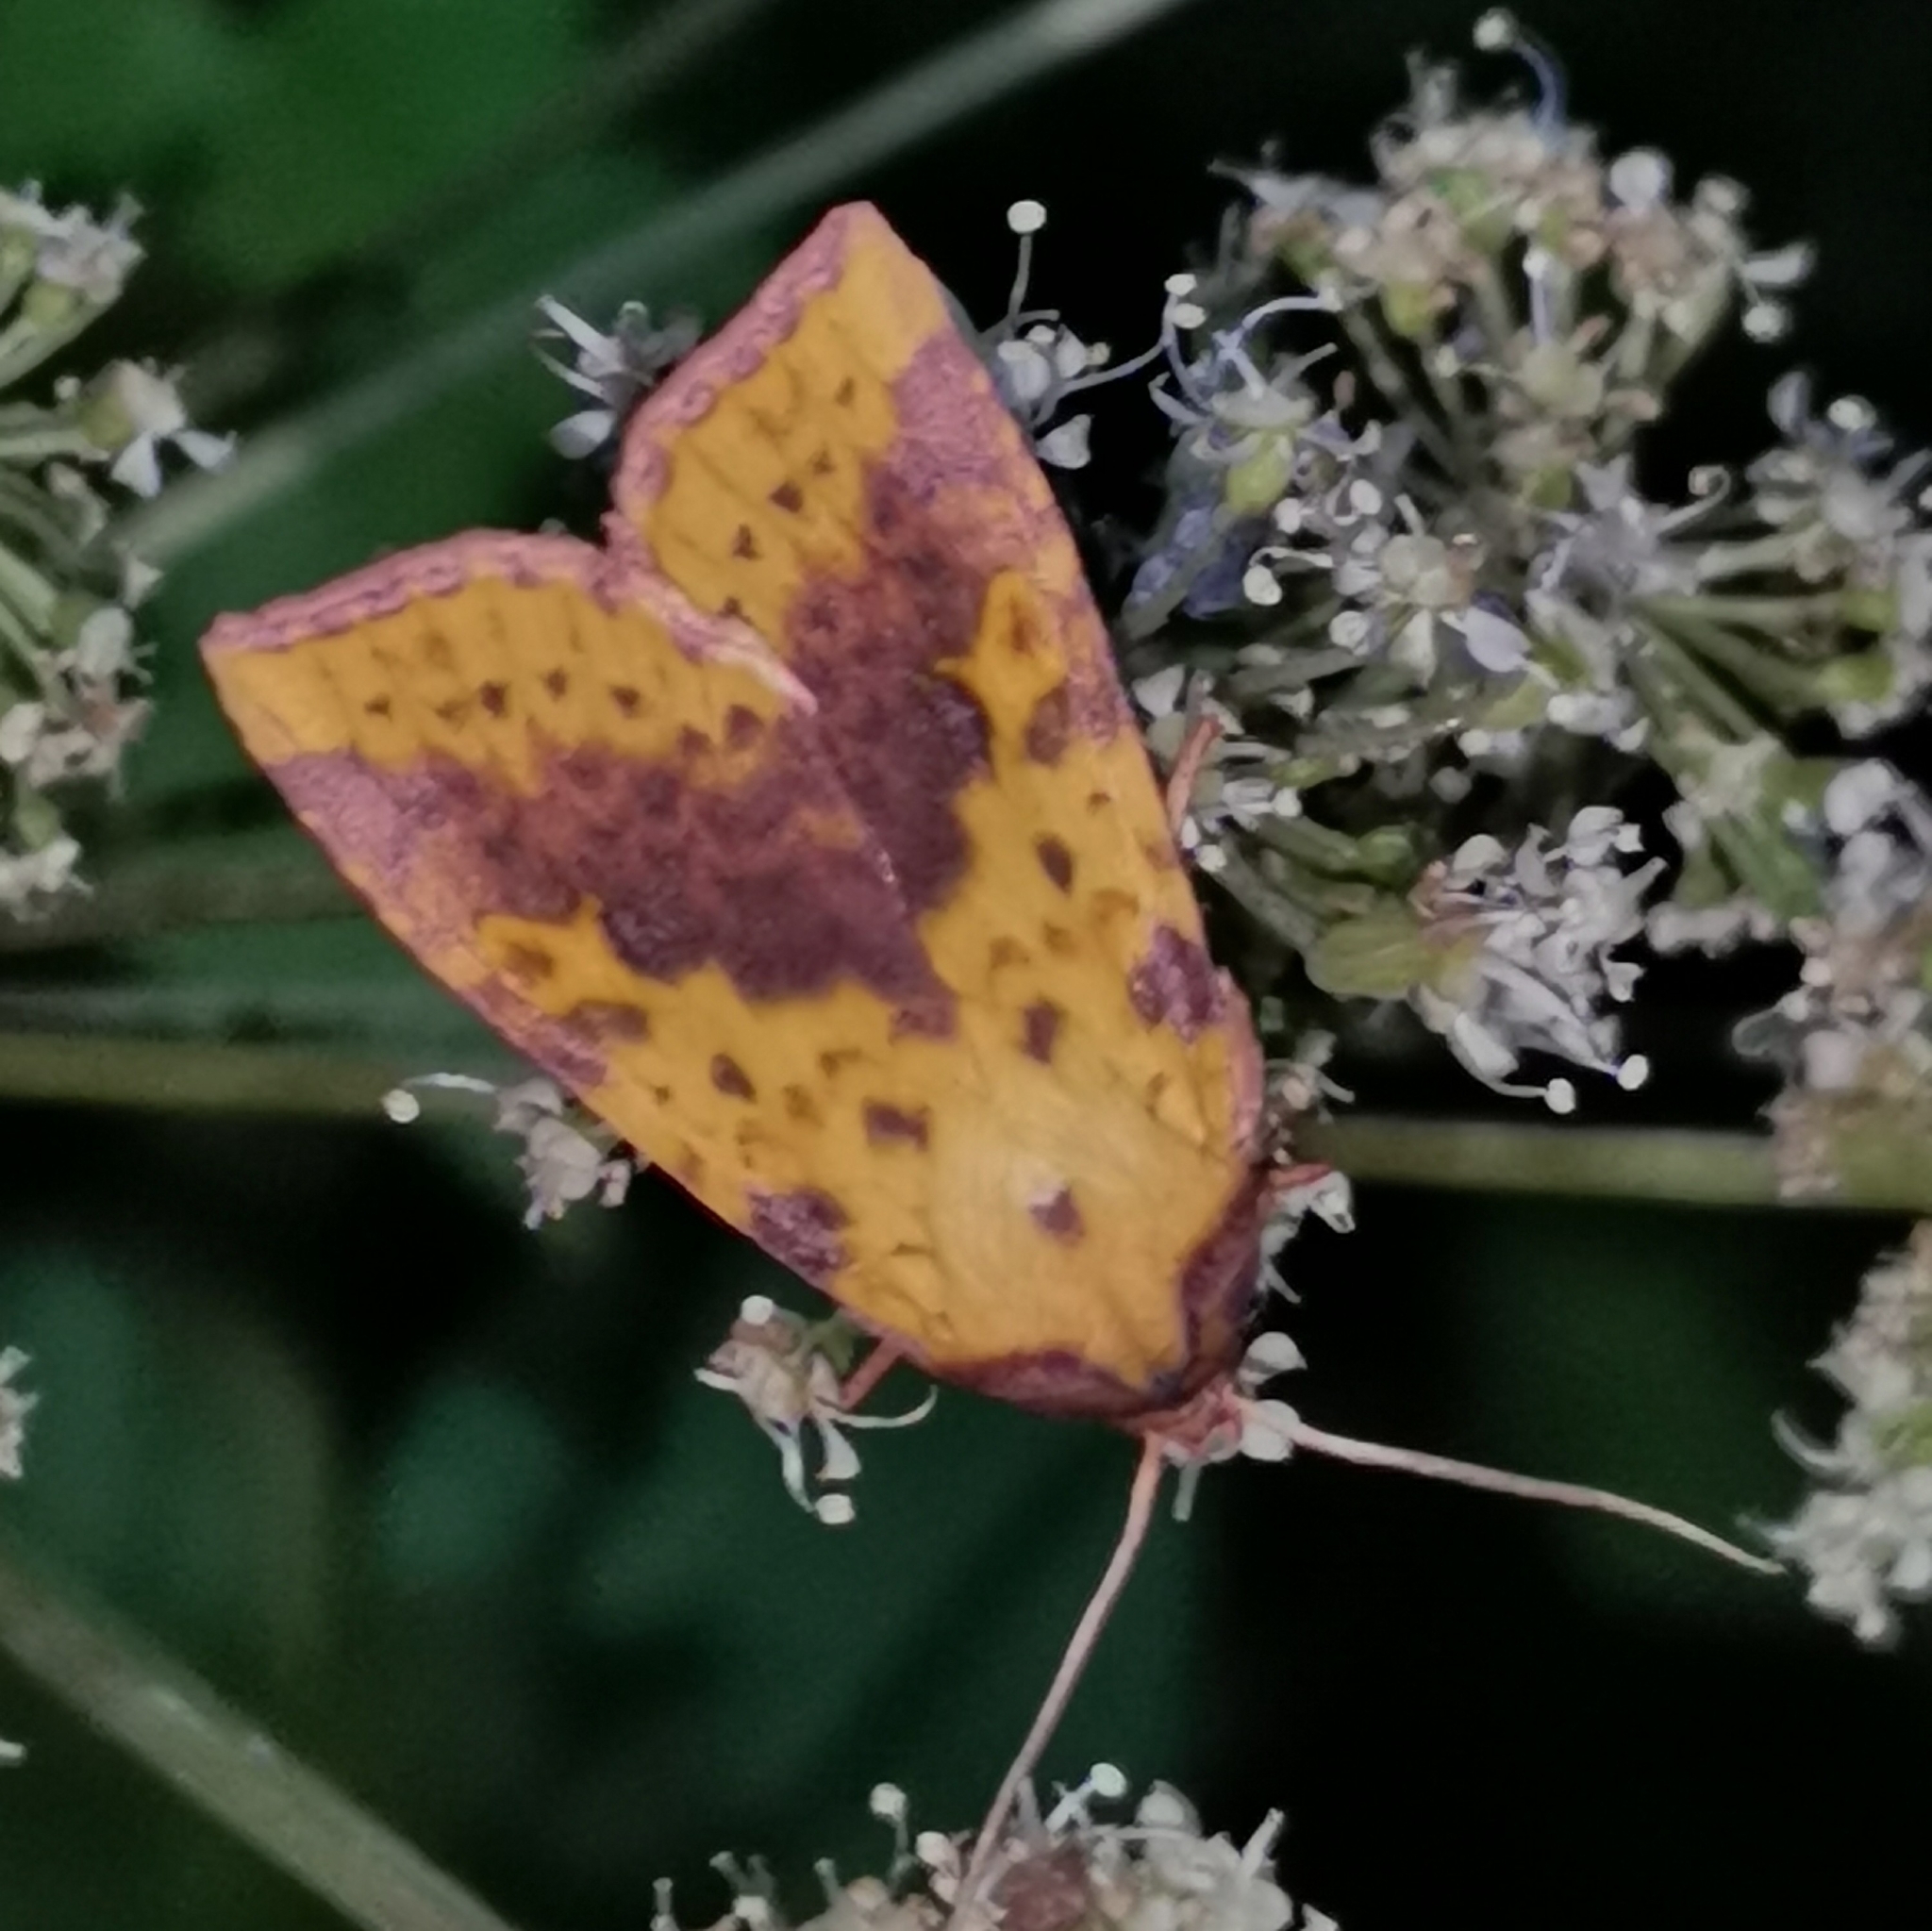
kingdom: Animalia
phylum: Arthropoda
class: Insecta
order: Lepidoptera
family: Noctuidae
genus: Xanthia
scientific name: Xanthia togata
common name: Pink-barred sallow
